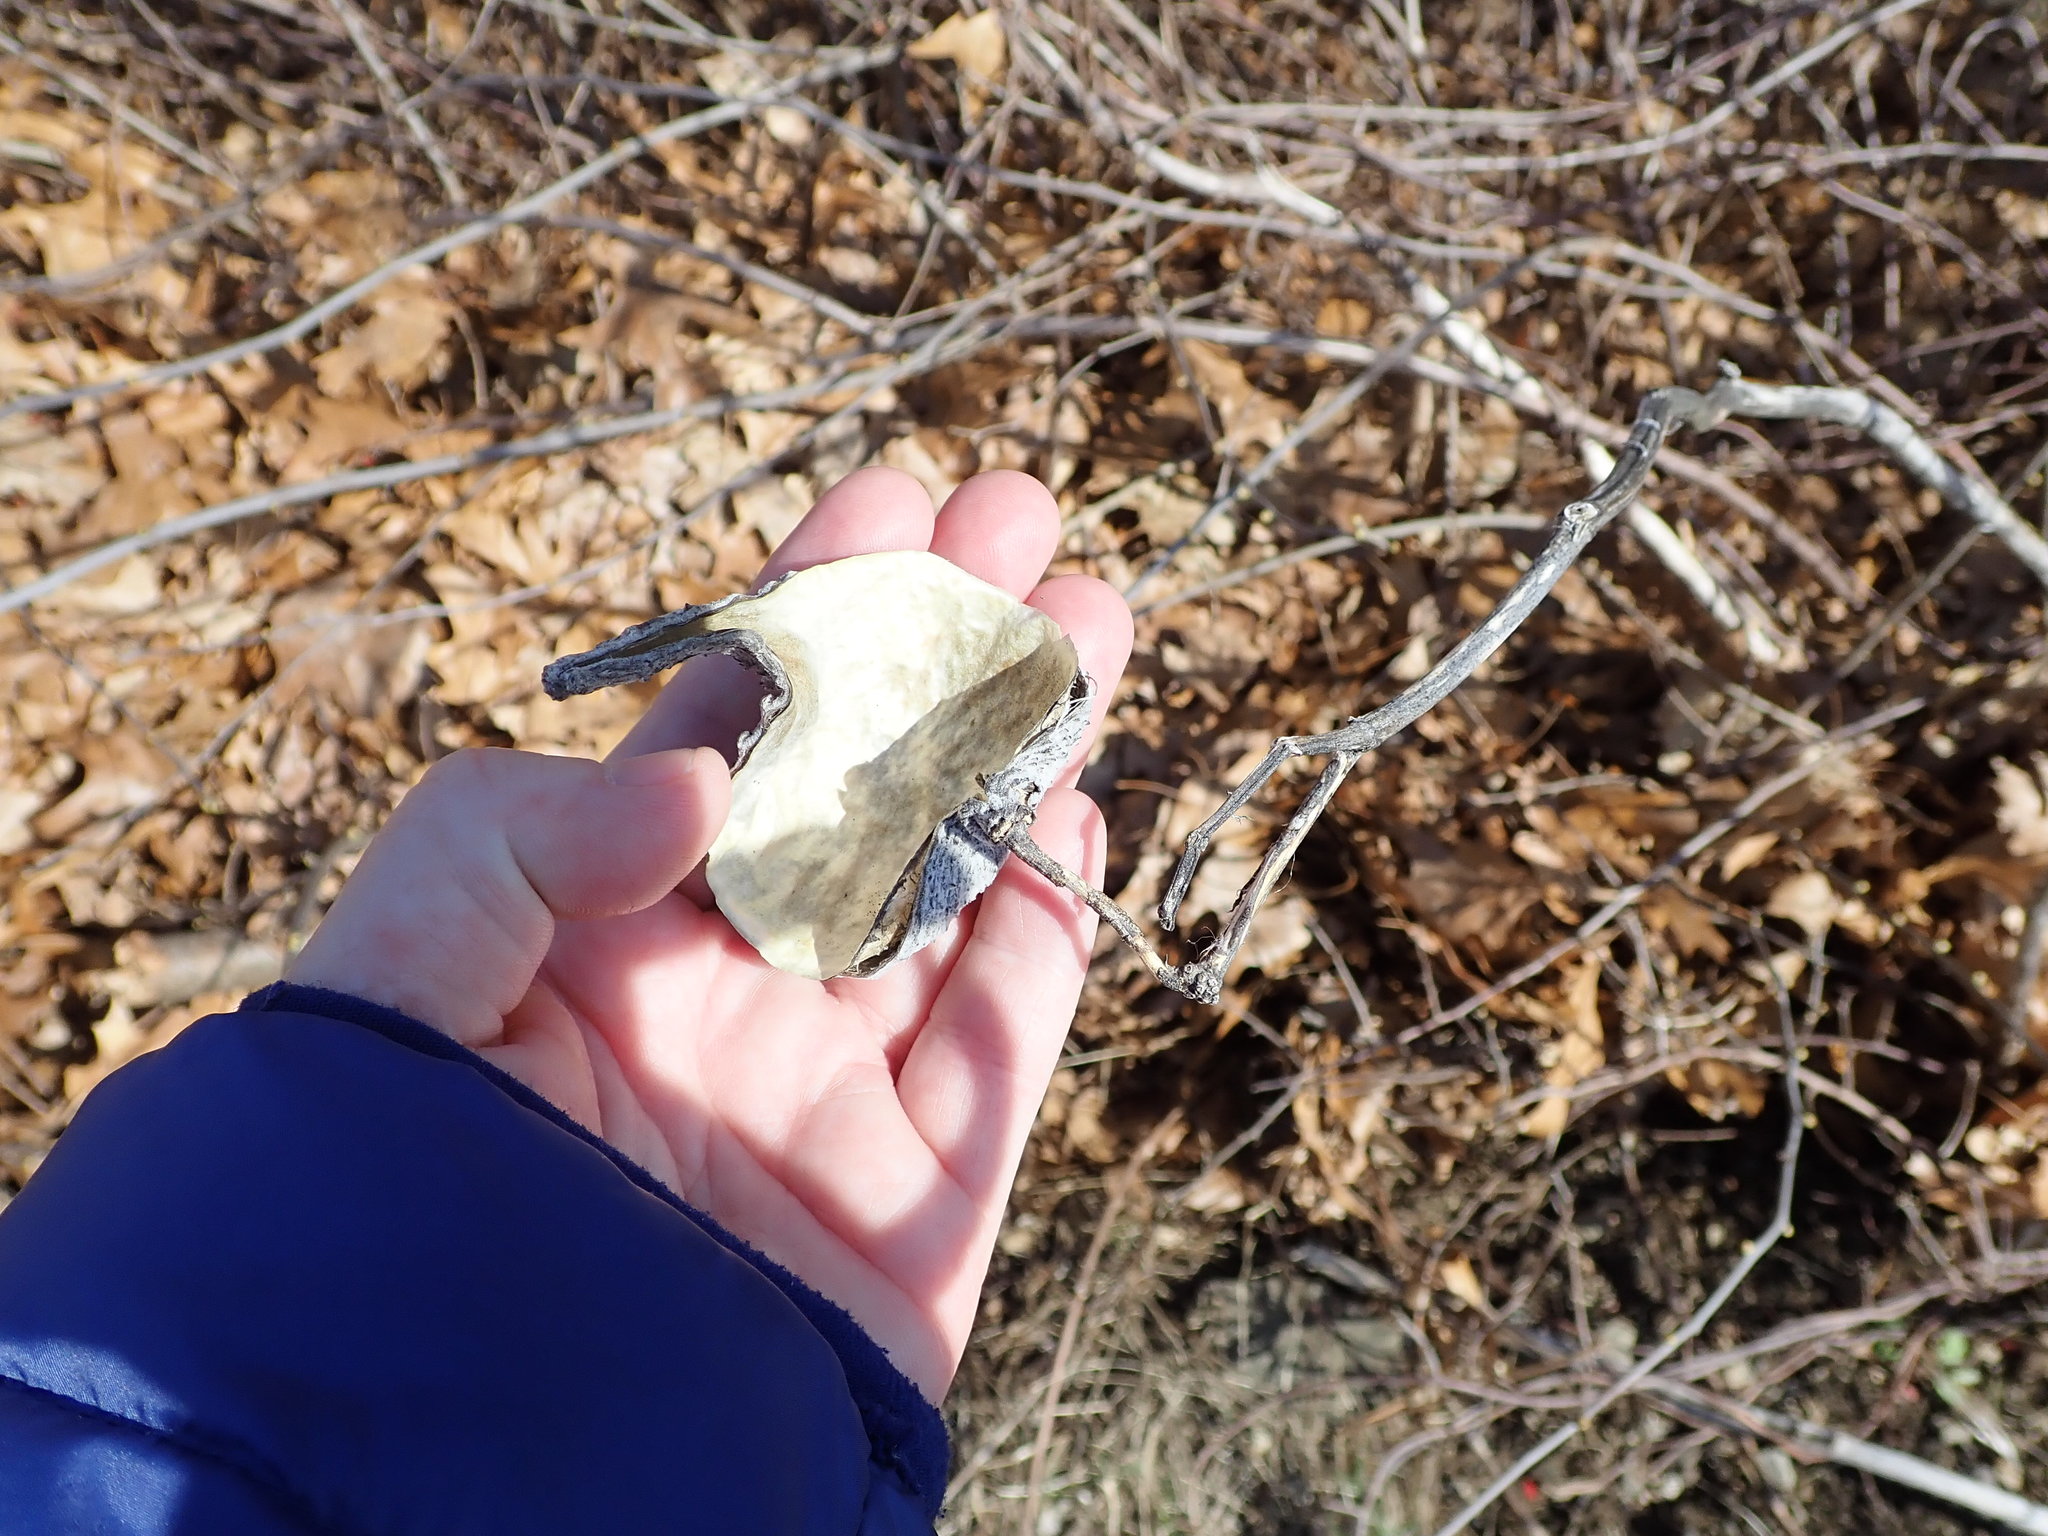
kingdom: Plantae
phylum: Tracheophyta
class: Magnoliopsida
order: Gentianales
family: Apocynaceae
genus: Asclepias
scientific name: Asclepias syriaca
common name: Common milkweed
